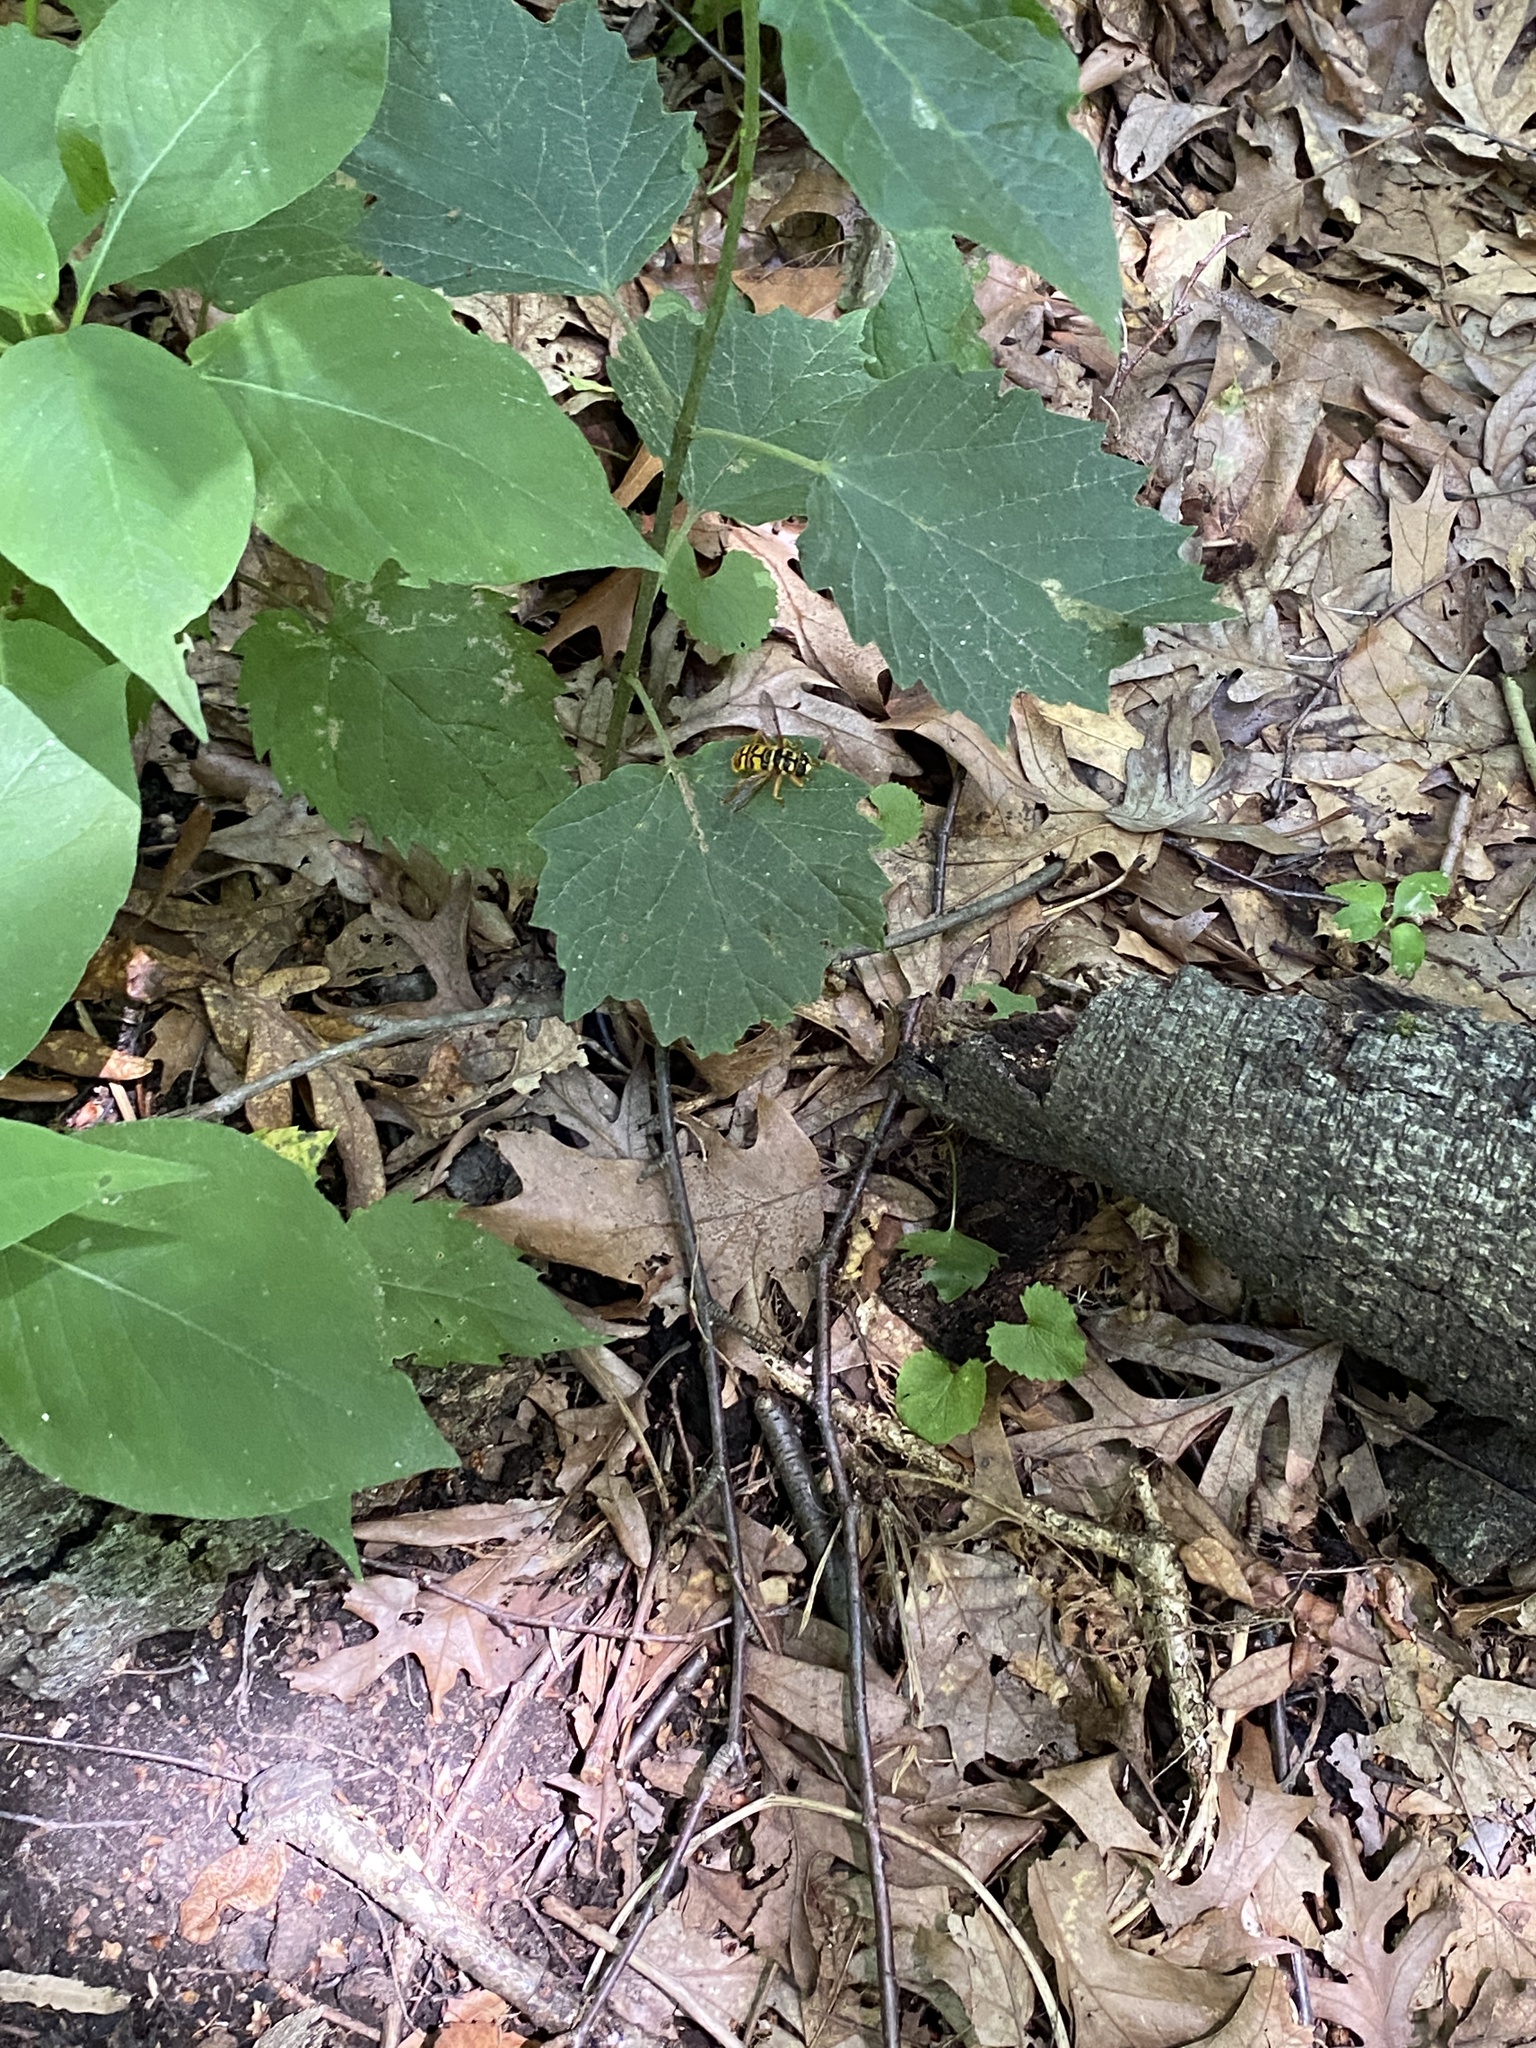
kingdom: Animalia
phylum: Arthropoda
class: Insecta
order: Diptera
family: Syrphidae
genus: Milesia
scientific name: Milesia virginiensis
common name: Virginia giant
